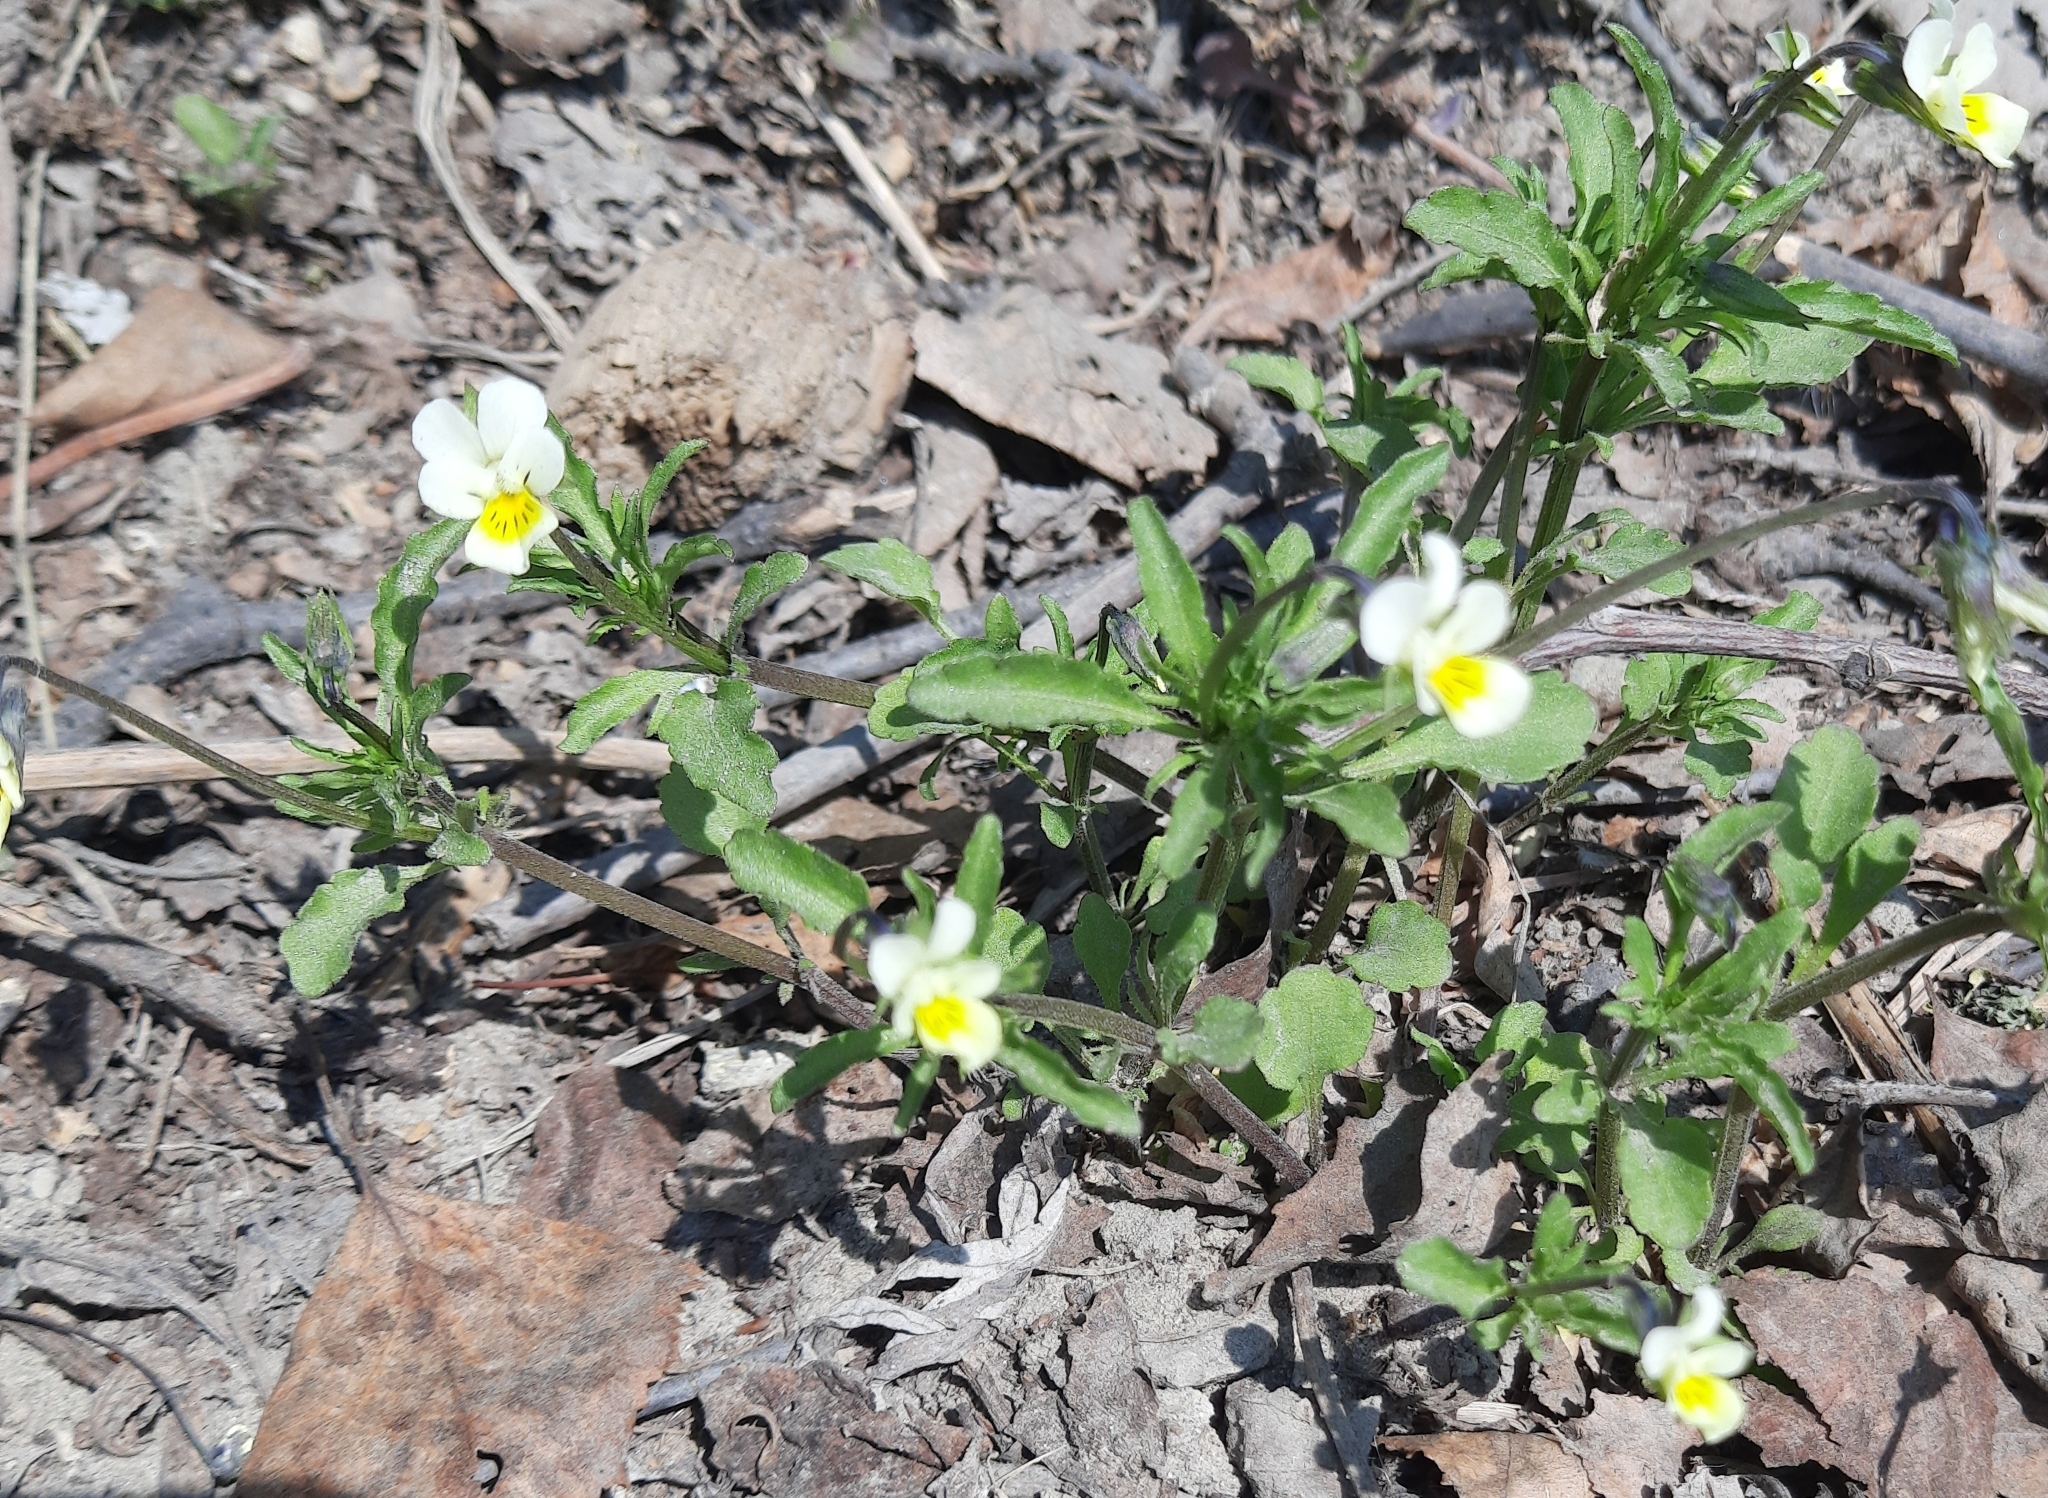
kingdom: Plantae
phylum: Tracheophyta
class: Magnoliopsida
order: Malpighiales
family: Violaceae
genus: Viola
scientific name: Viola arvensis
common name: Field pansy
